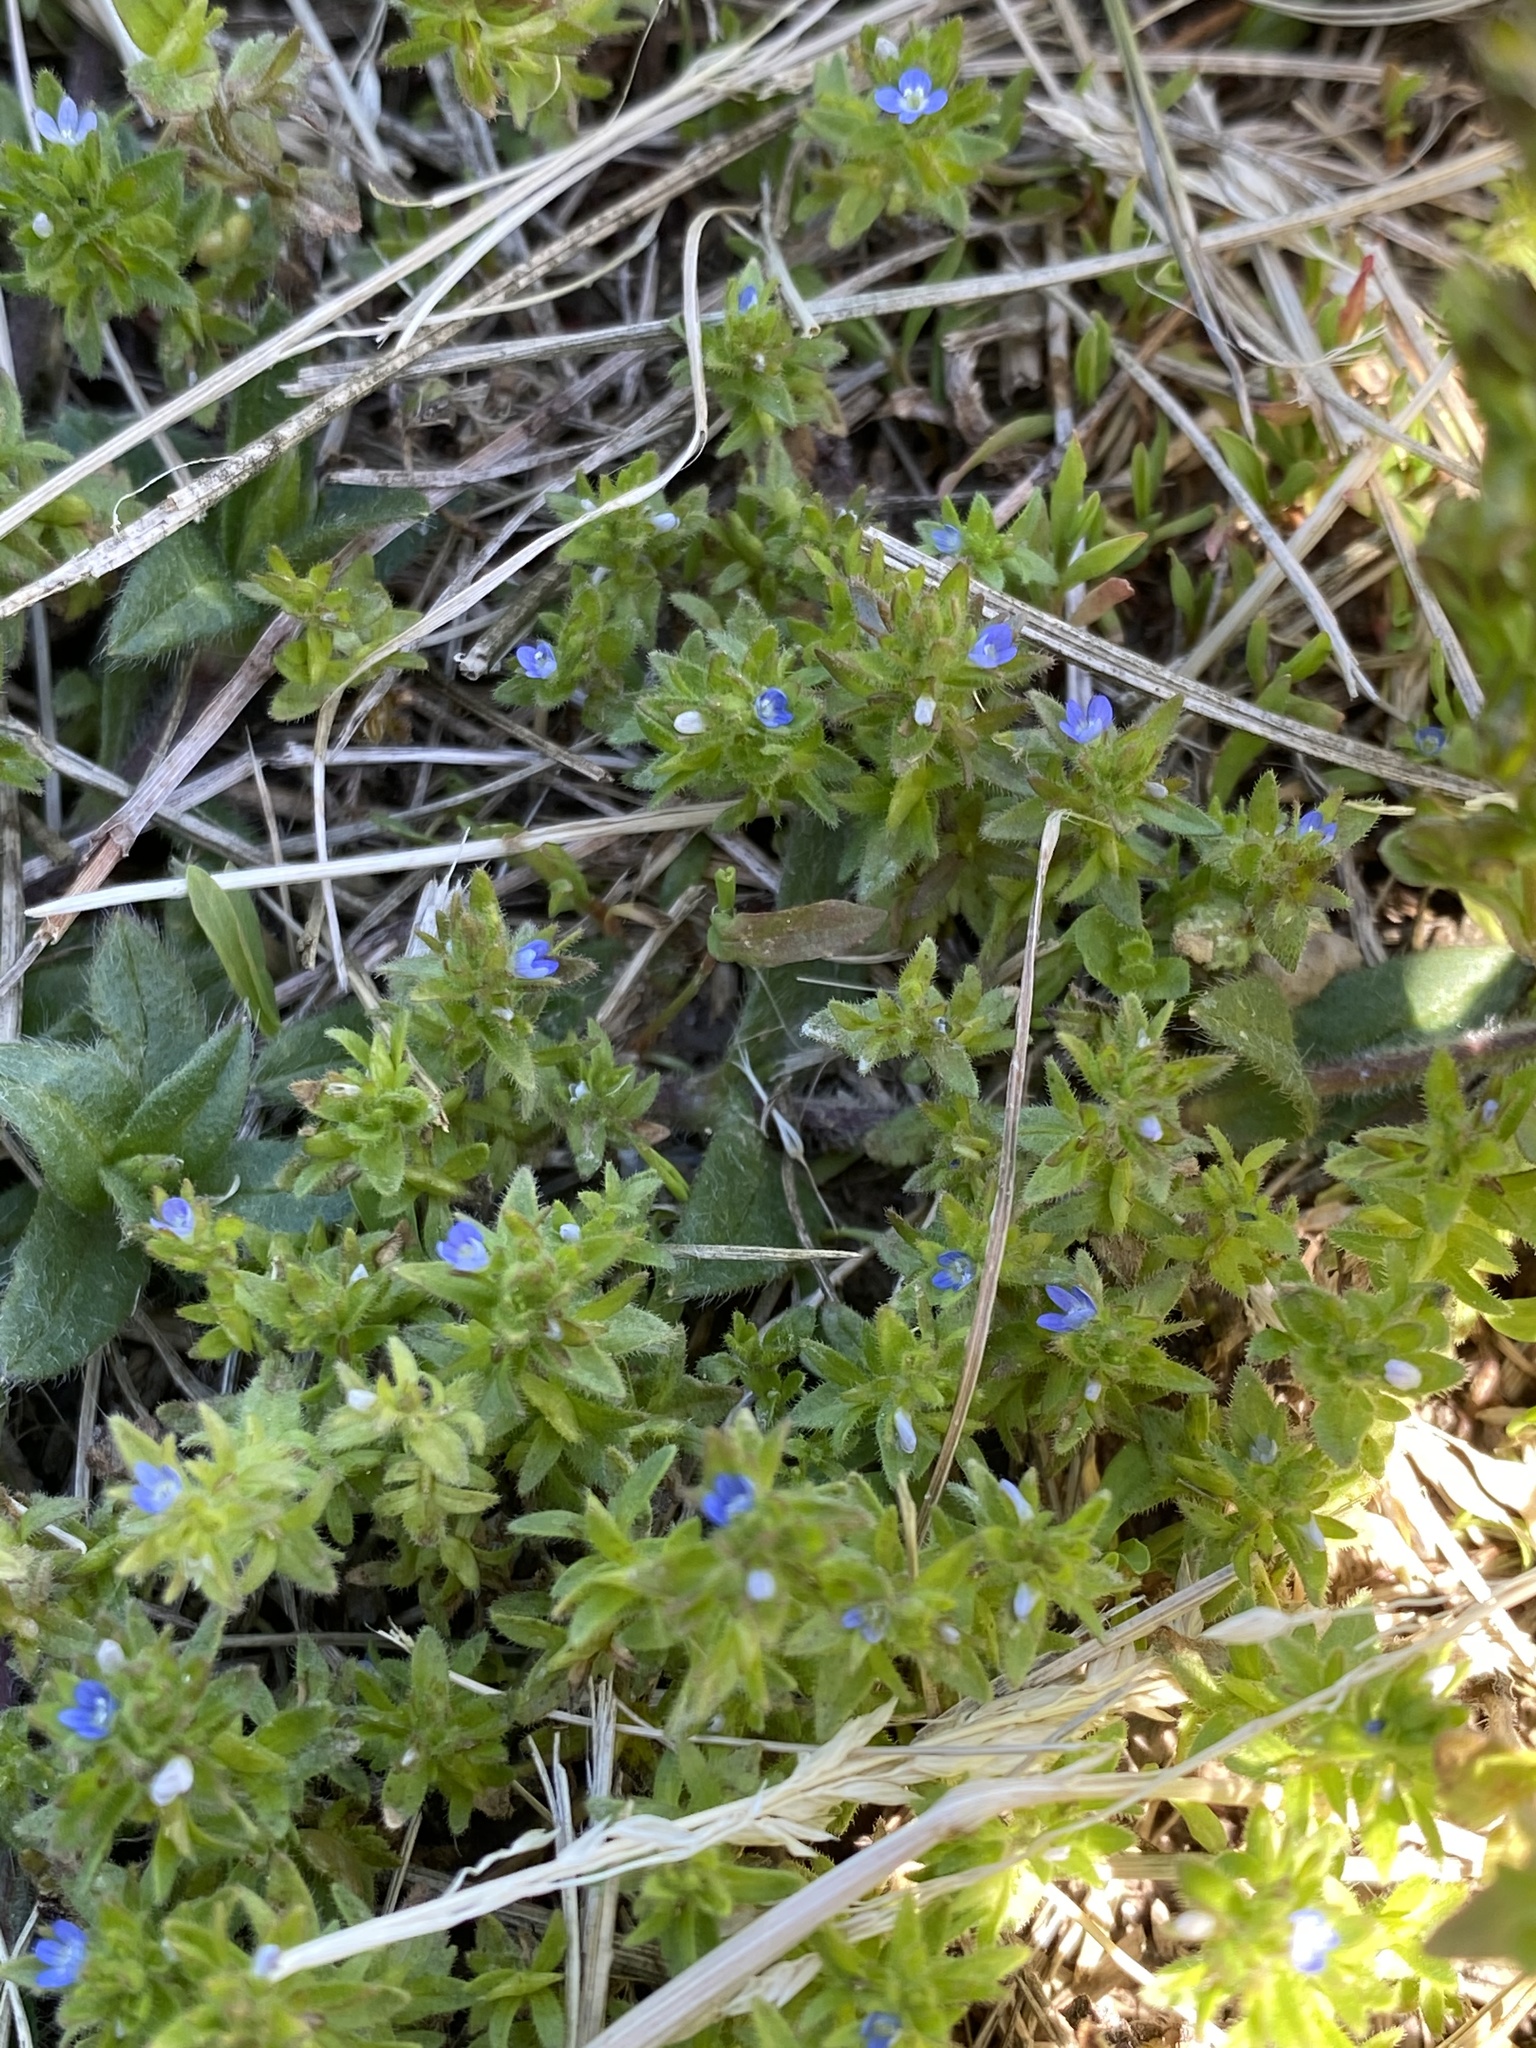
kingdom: Plantae
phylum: Tracheophyta
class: Magnoliopsida
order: Lamiales
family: Plantaginaceae
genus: Veronica
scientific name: Veronica arvensis
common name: Corn speedwell
